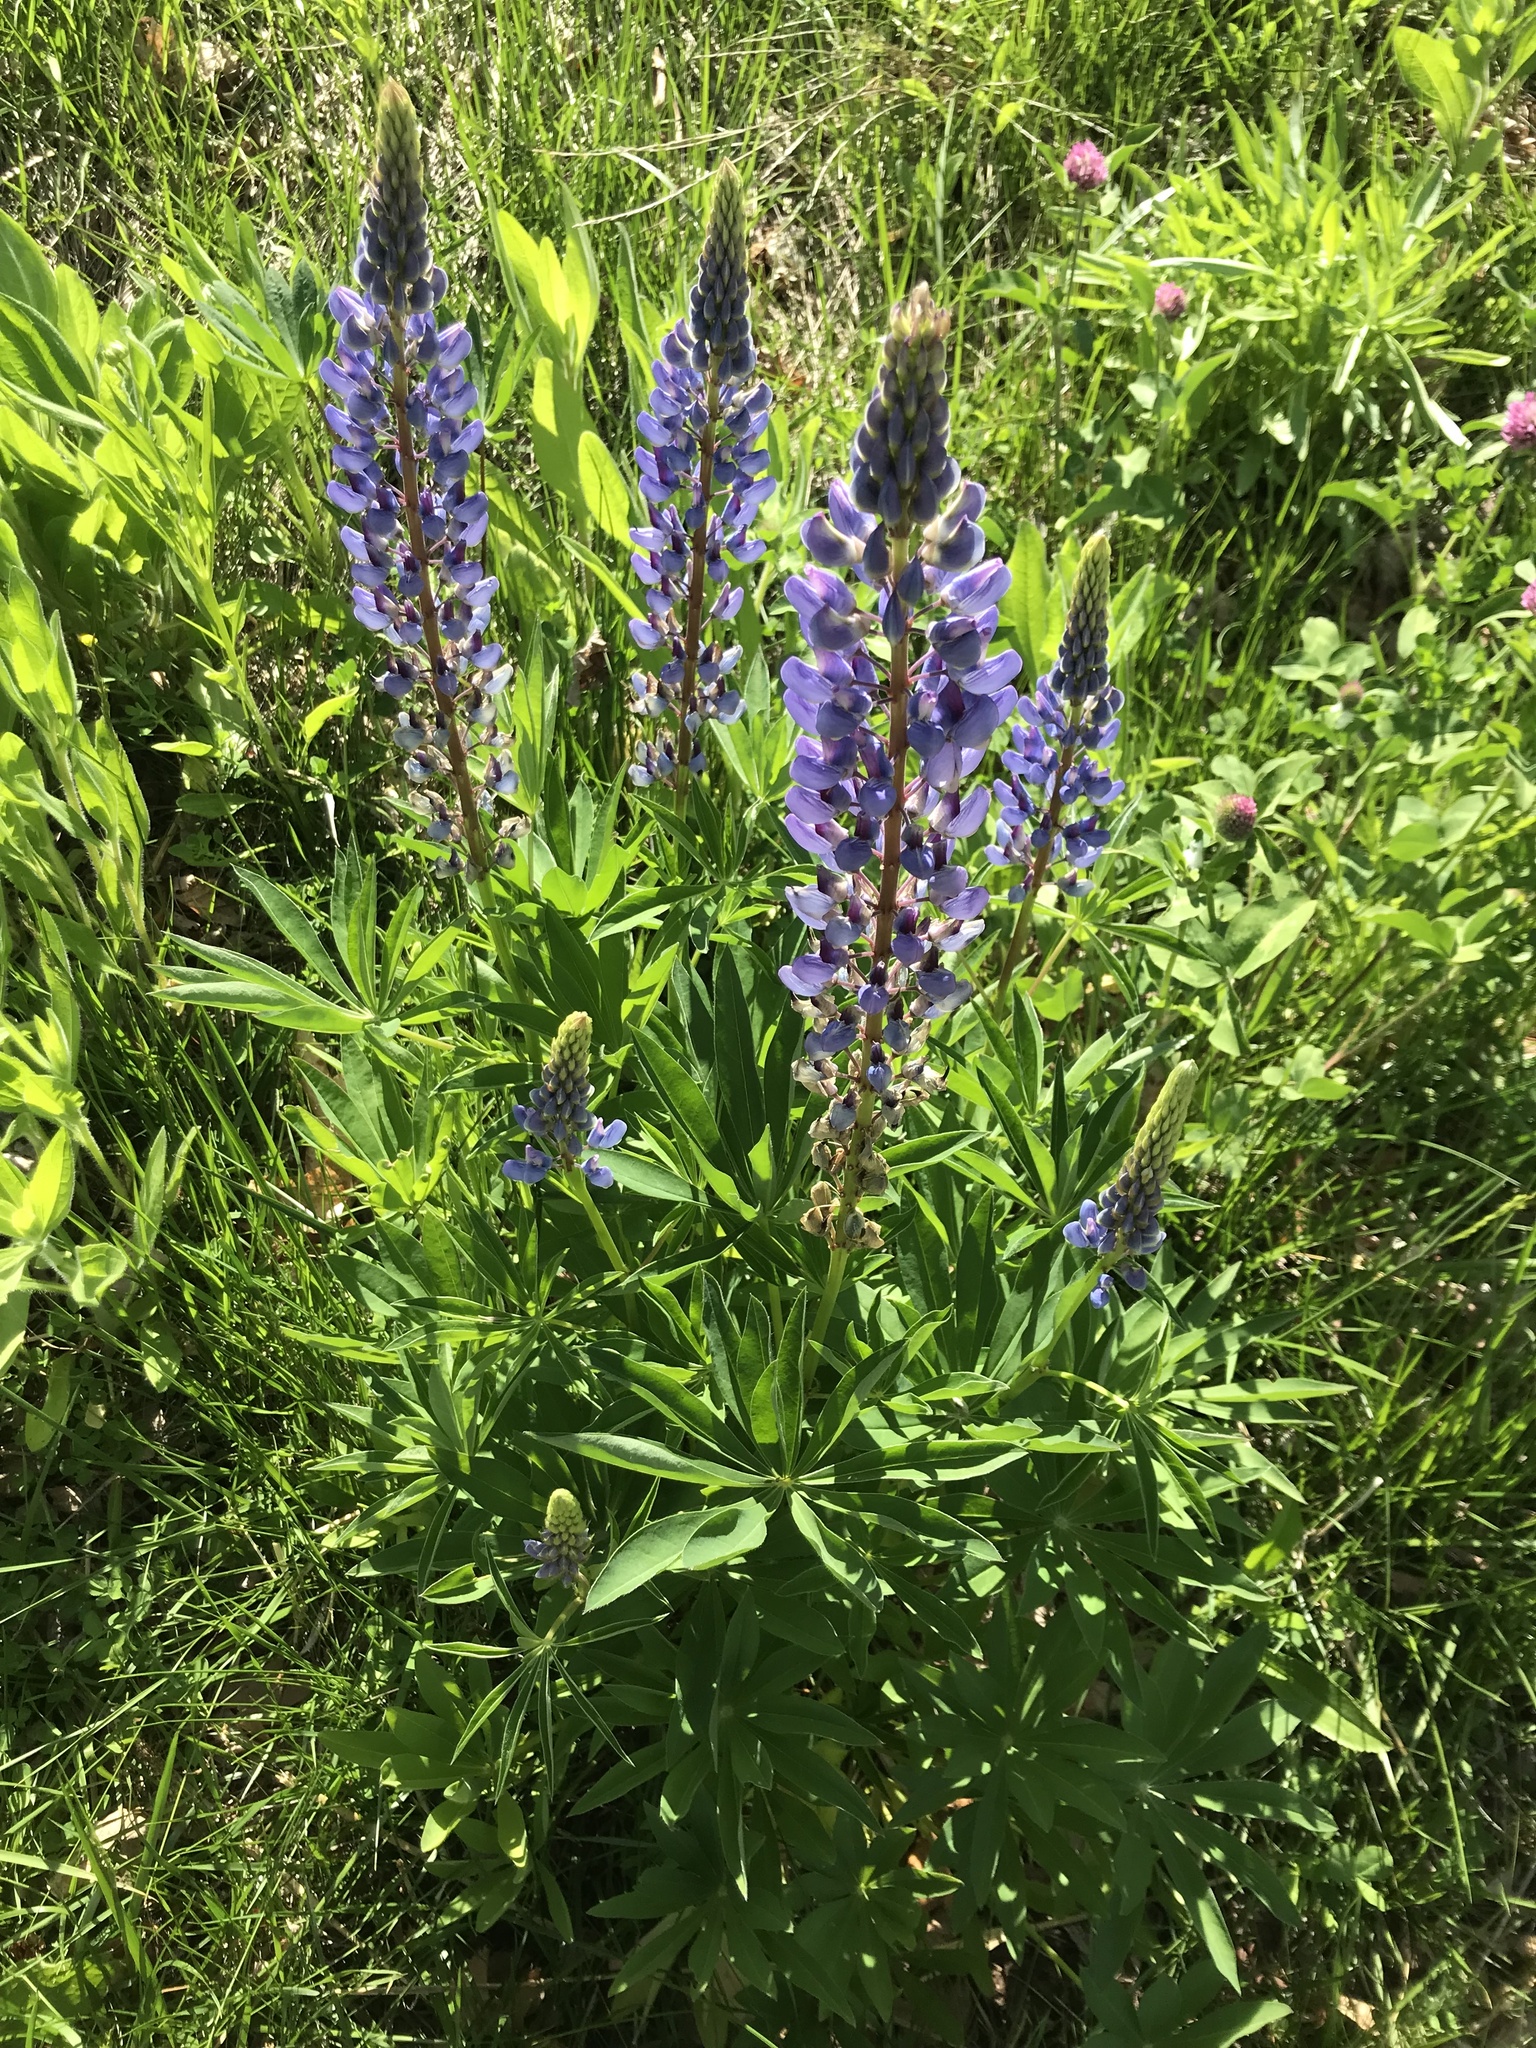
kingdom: Plantae
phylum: Tracheophyta
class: Magnoliopsida
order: Fabales
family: Fabaceae
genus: Lupinus
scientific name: Lupinus polyphyllus
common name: Garden lupin
